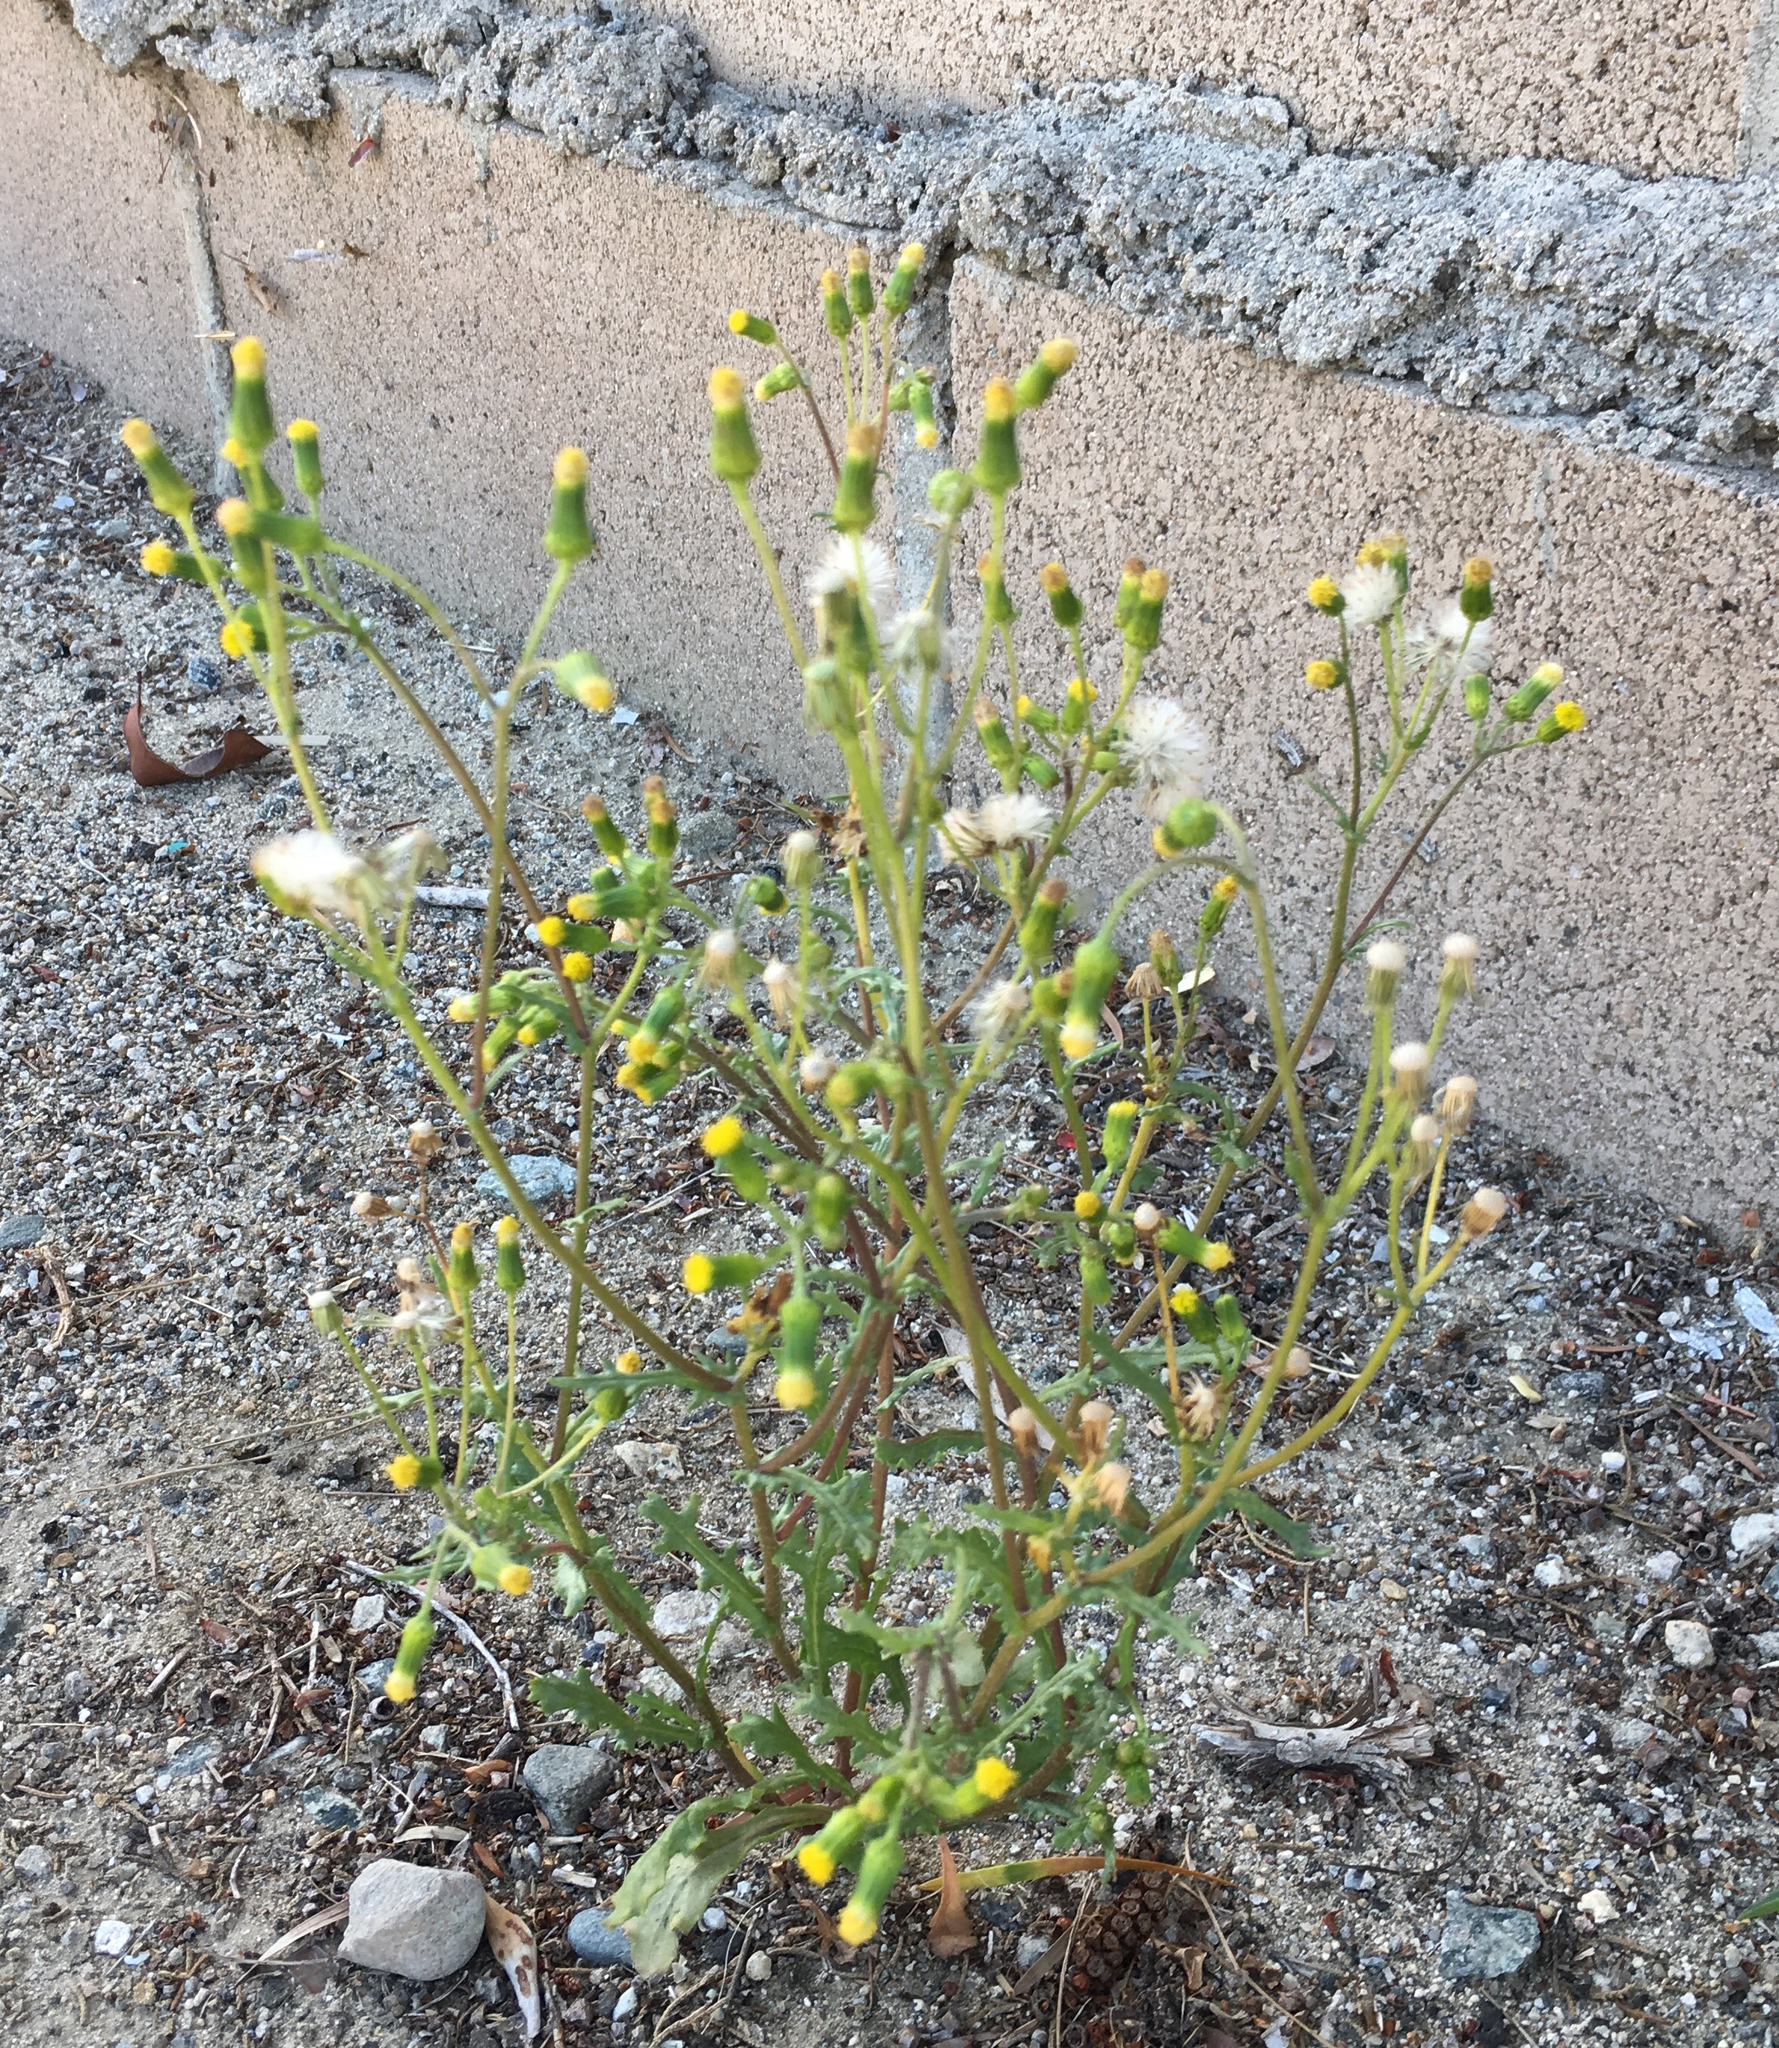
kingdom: Plantae
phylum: Tracheophyta
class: Magnoliopsida
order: Asterales
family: Asteraceae
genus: Senecio
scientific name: Senecio vulgaris
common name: Old-man-in-the-spring
